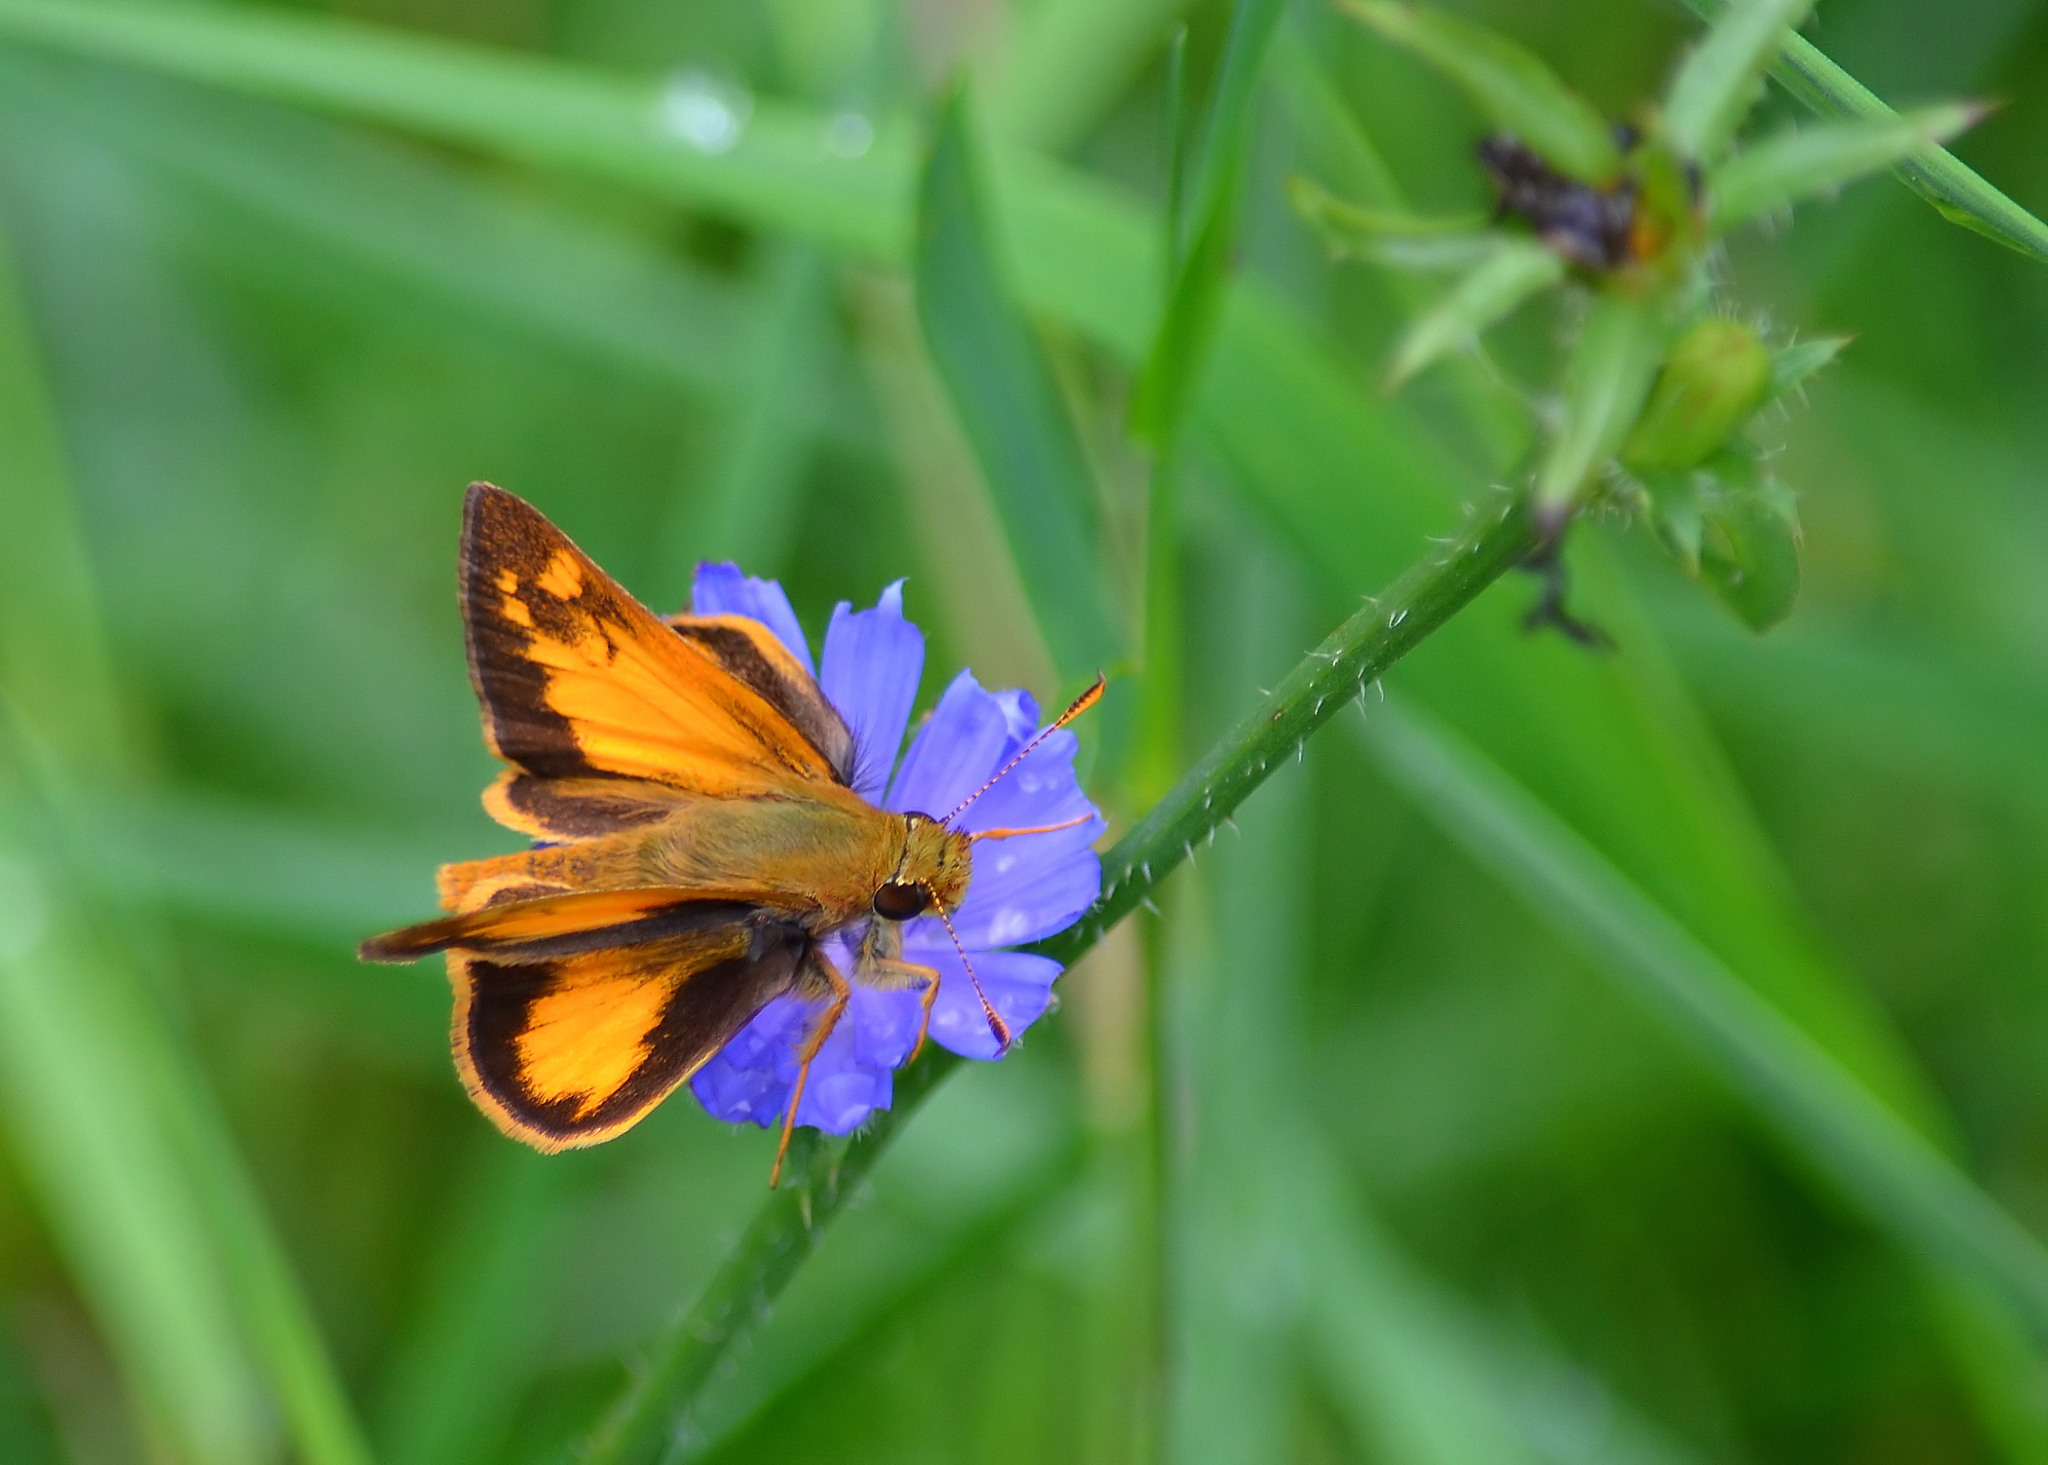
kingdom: Animalia
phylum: Arthropoda
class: Insecta
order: Lepidoptera
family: Hesperiidae
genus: Lon
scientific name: Lon zabulon
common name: Zabulon skipper
